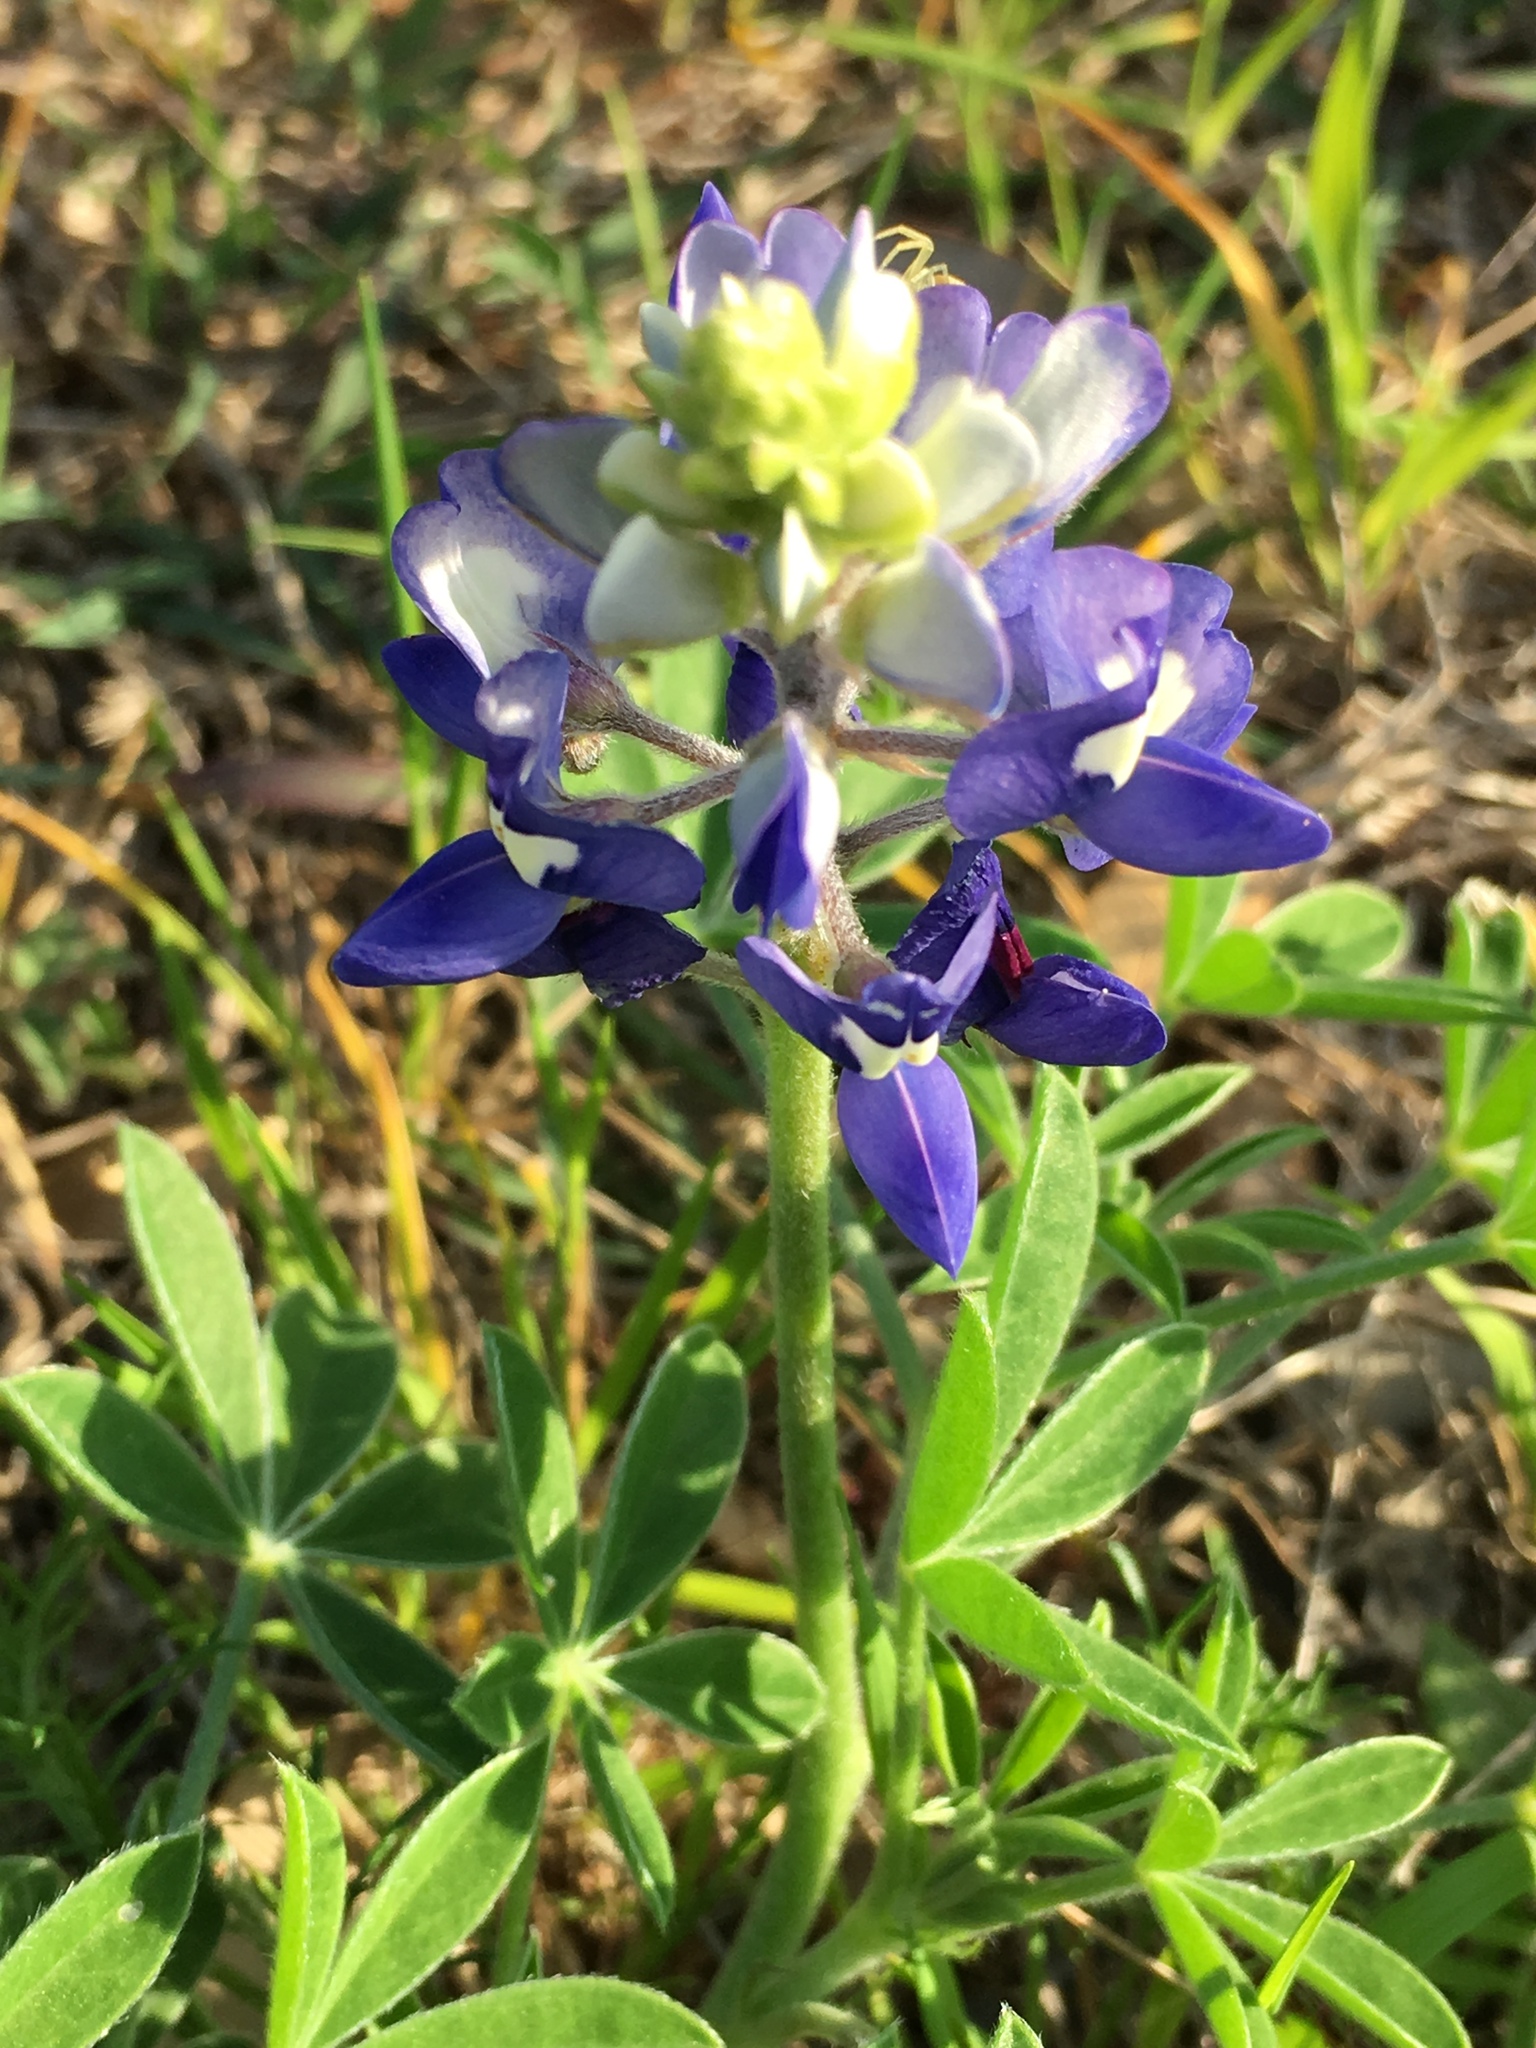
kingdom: Plantae
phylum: Tracheophyta
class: Magnoliopsida
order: Fabales
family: Fabaceae
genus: Lupinus
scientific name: Lupinus texensis
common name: Texas bluebonnet
